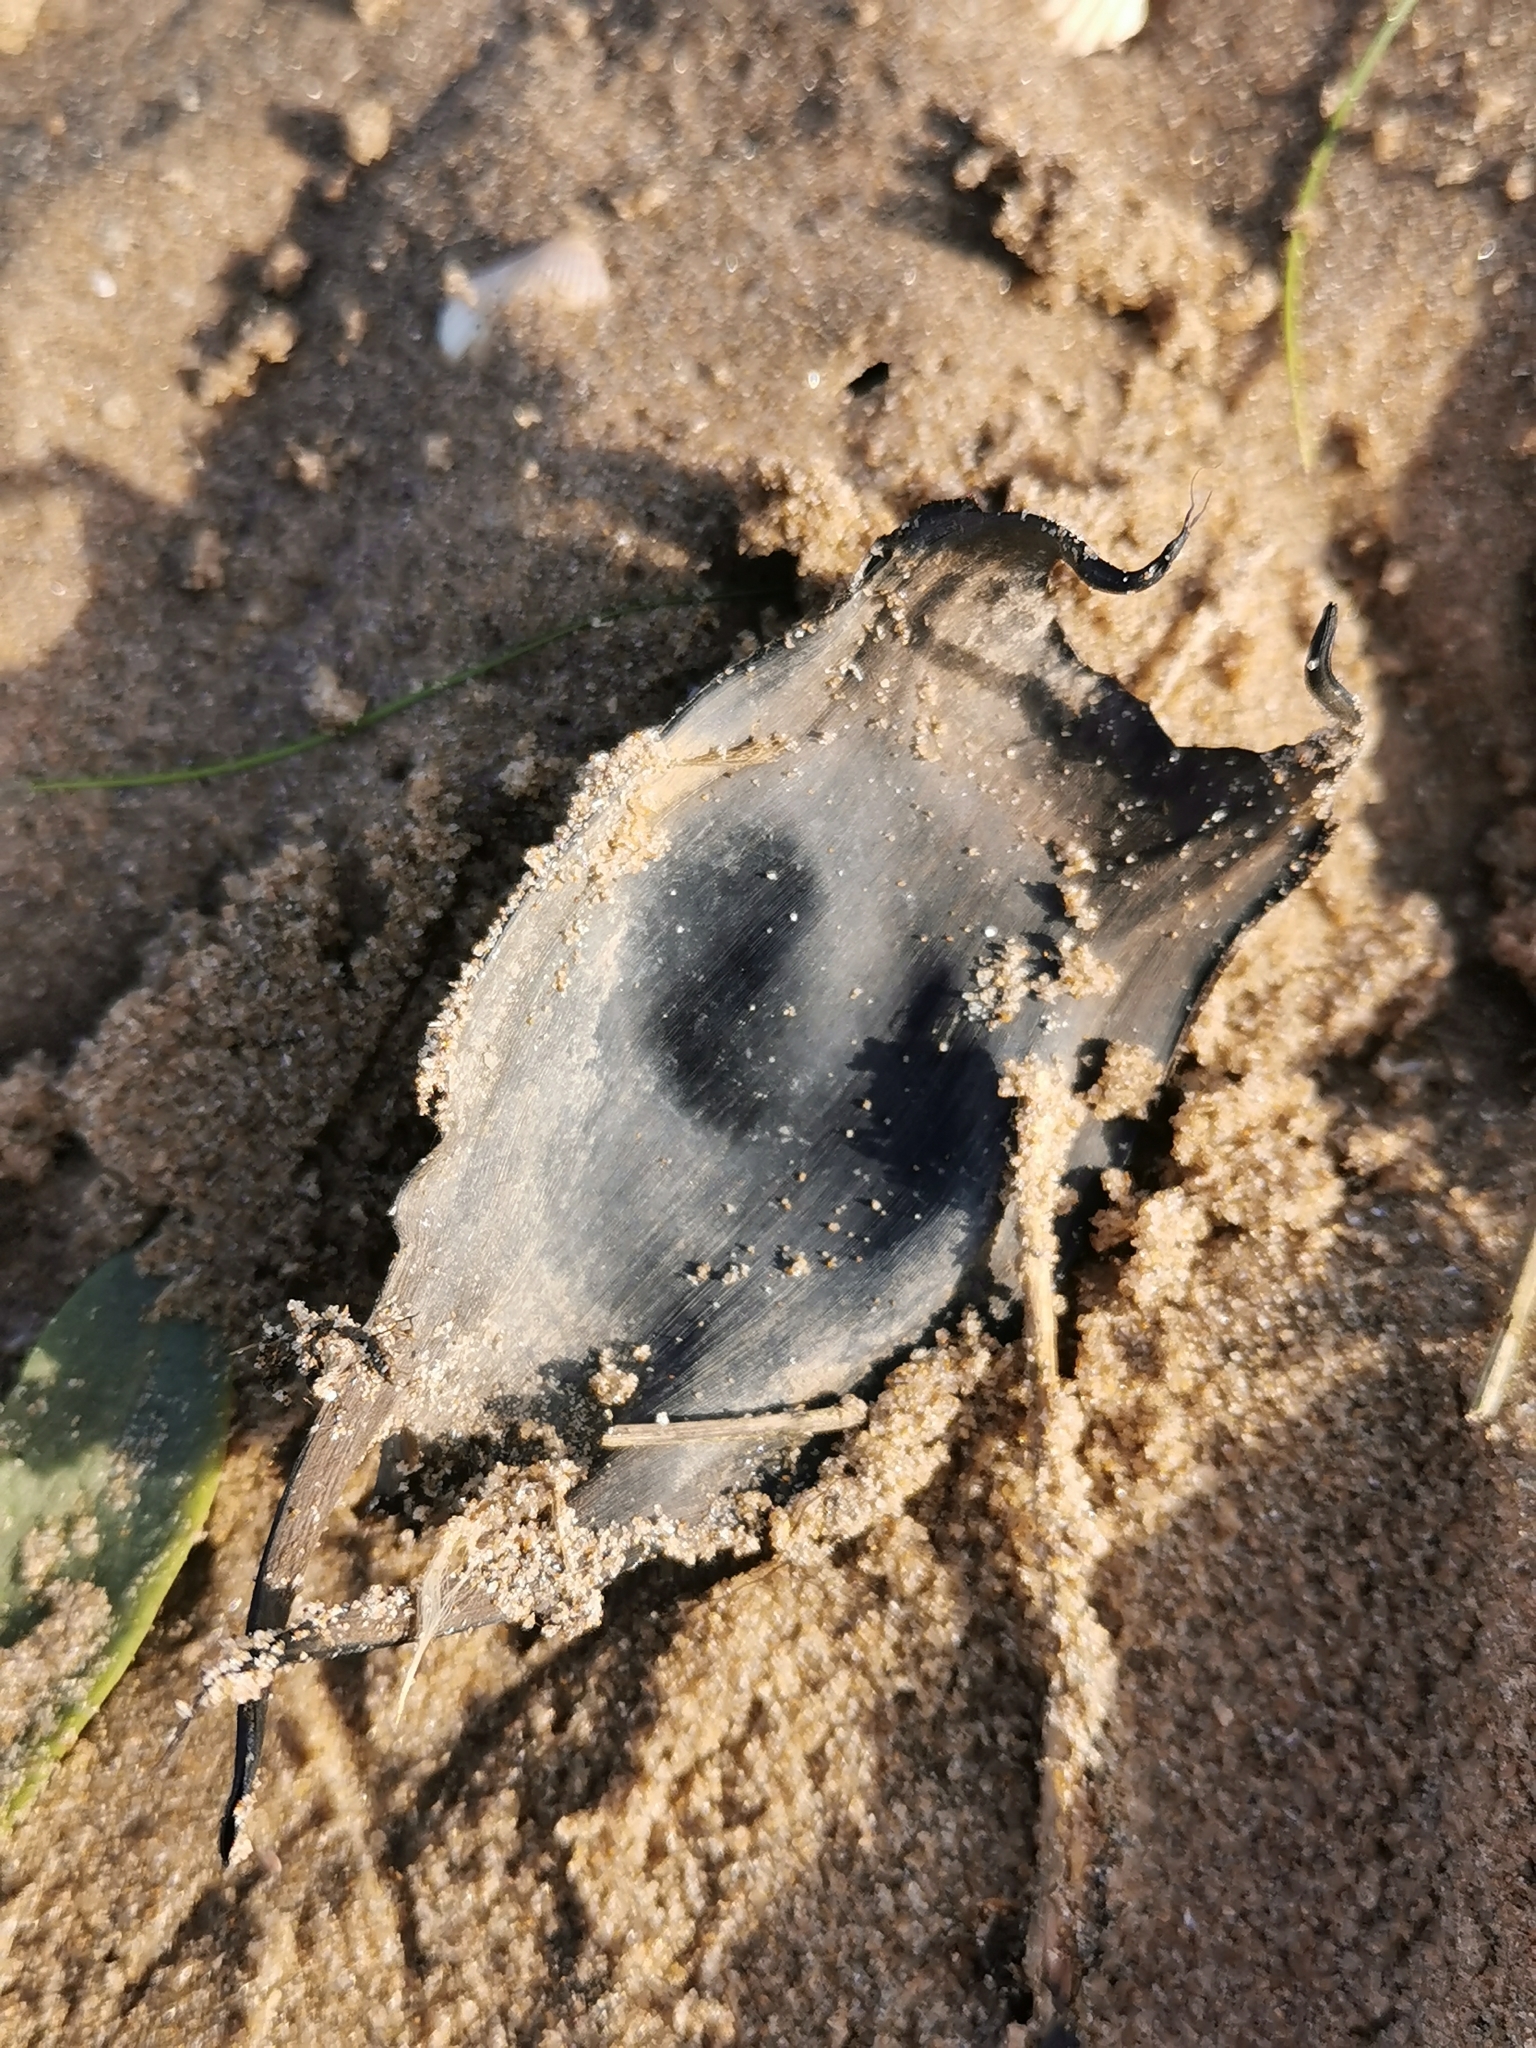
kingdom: Animalia
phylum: Chordata
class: Elasmobranchii
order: Rajiformes
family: Rajidae
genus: Raja
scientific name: Raja clavata
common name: Thornback ray
